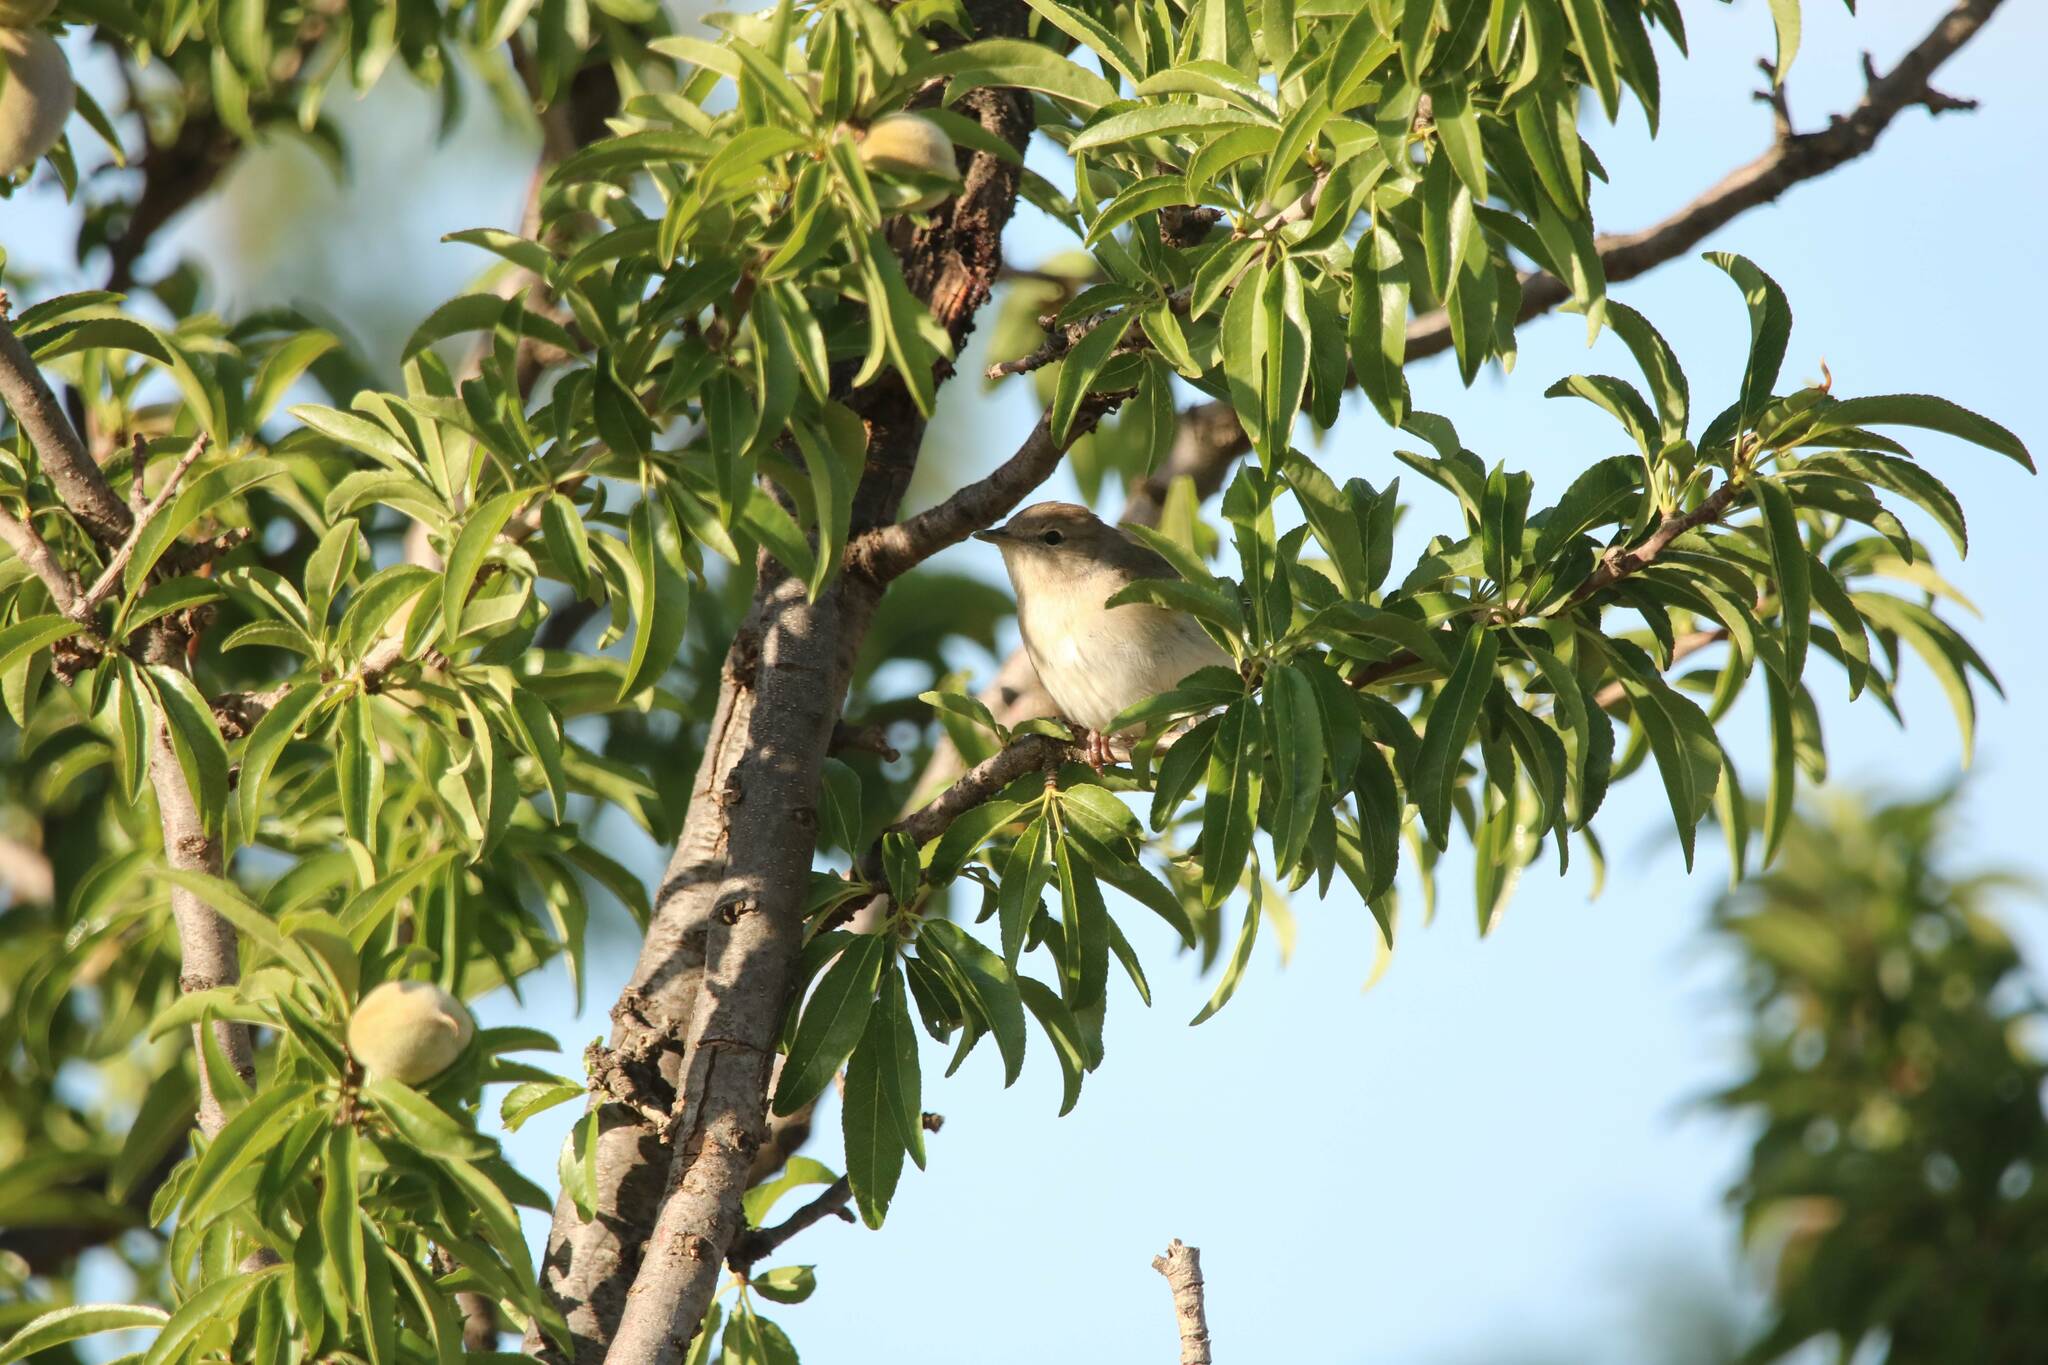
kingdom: Animalia
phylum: Chordata
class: Aves
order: Passeriformes
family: Sylviidae
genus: Sylvia
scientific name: Sylvia borin
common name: Garden warbler
